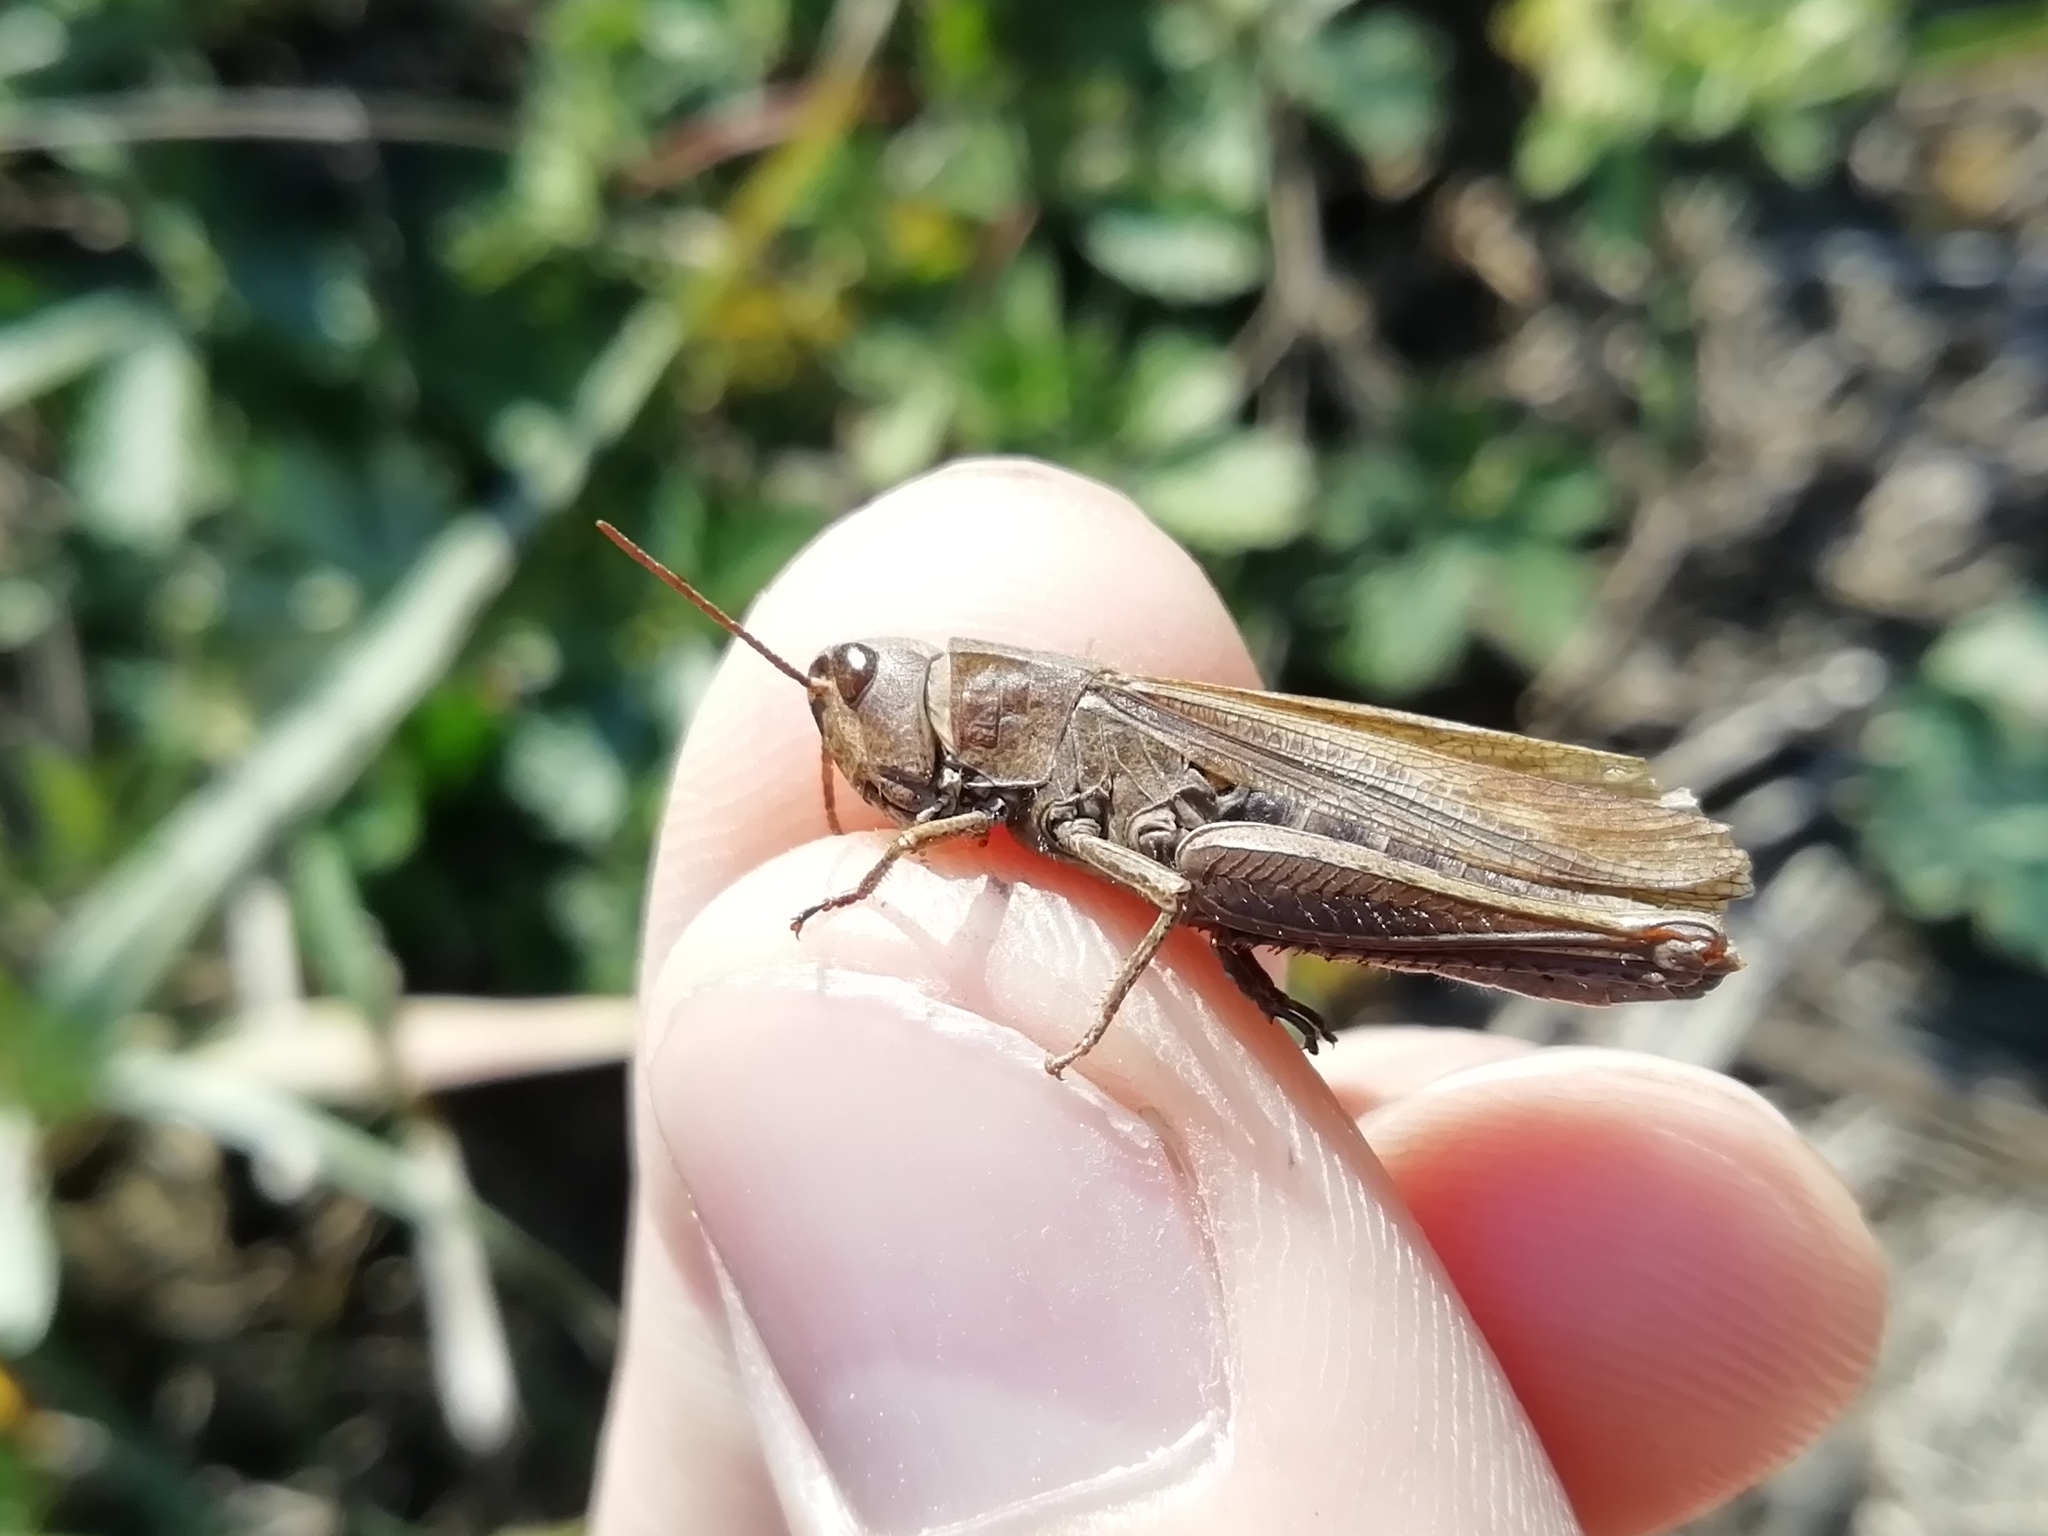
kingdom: Animalia
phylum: Arthropoda
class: Insecta
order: Orthoptera
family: Acrididae
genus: Chorthippus
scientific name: Chorthippus dorsatus
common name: Steppe grasshopper
